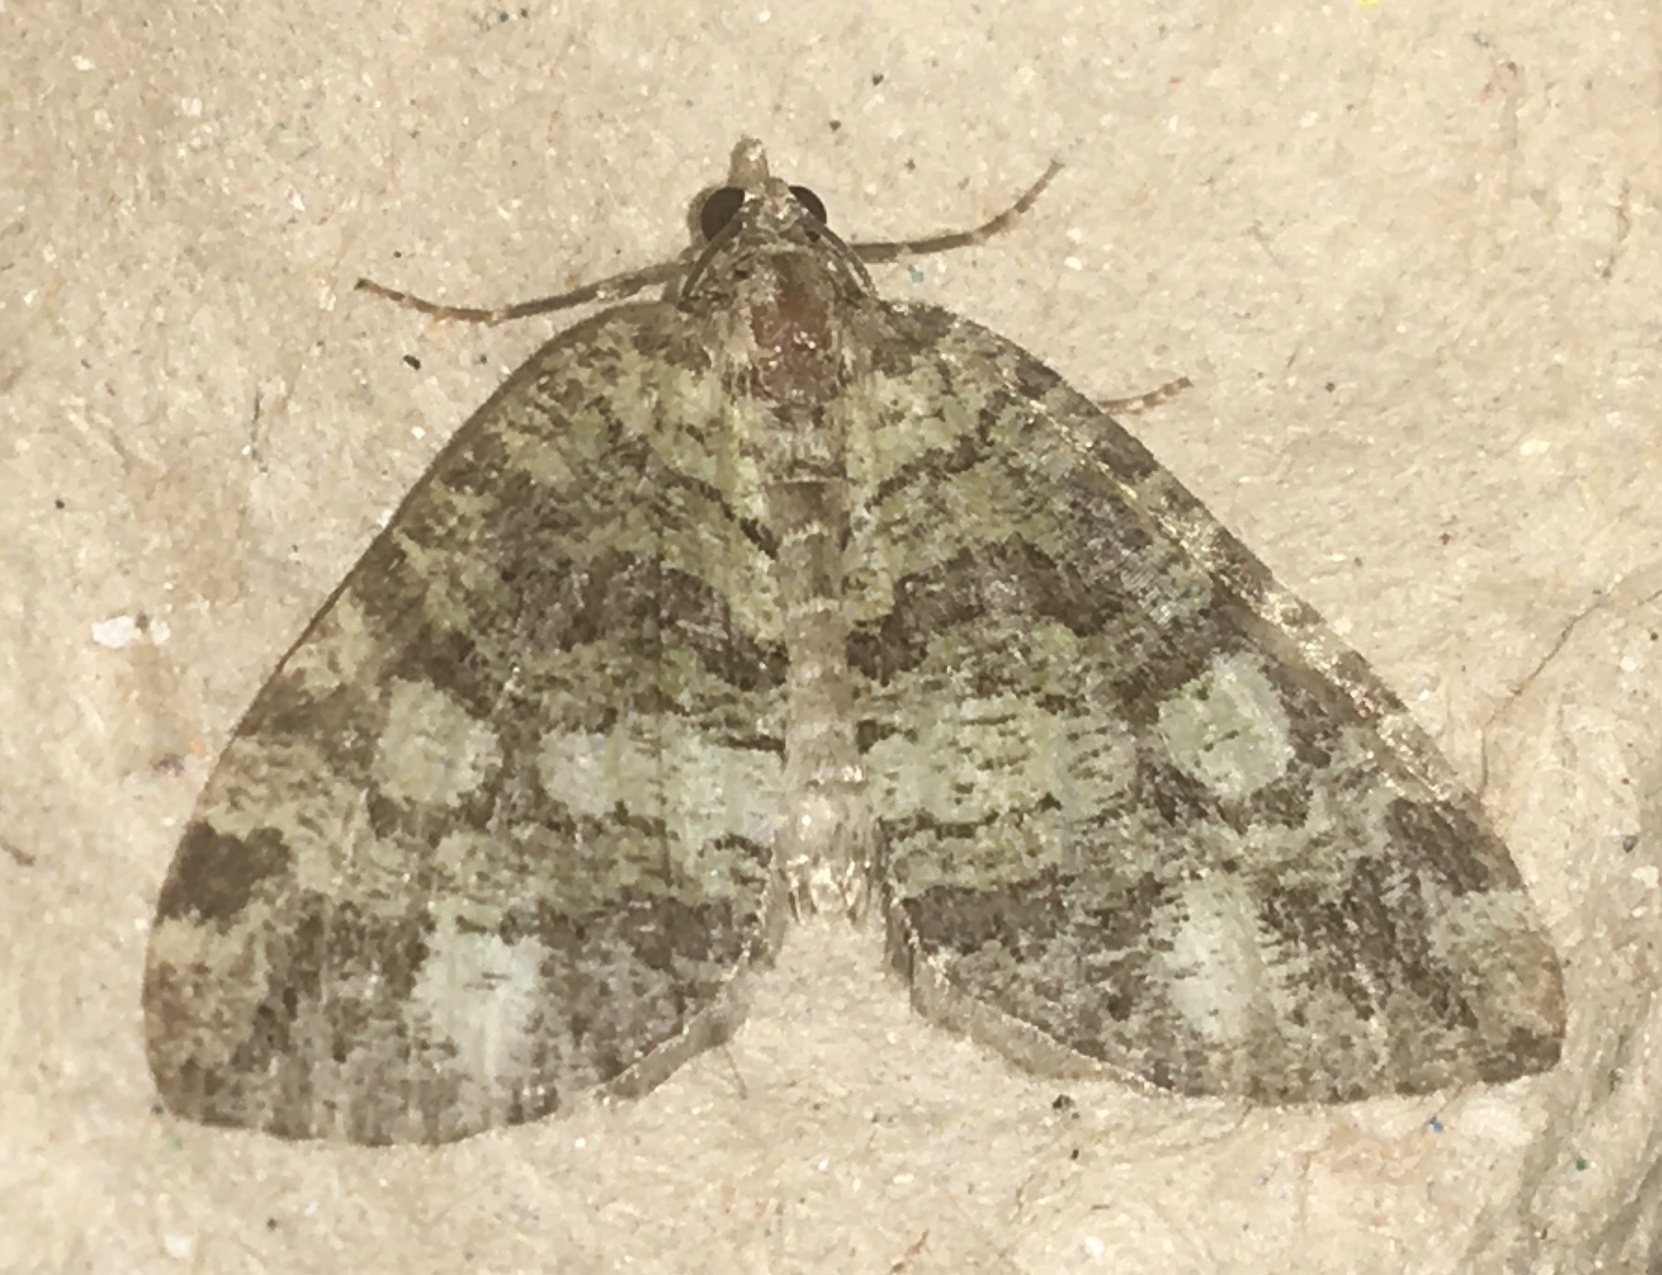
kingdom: Animalia
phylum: Arthropoda
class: Insecta
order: Lepidoptera
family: Geometridae
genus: Hydriomena
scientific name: Hydriomena furcata
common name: July highflyer
